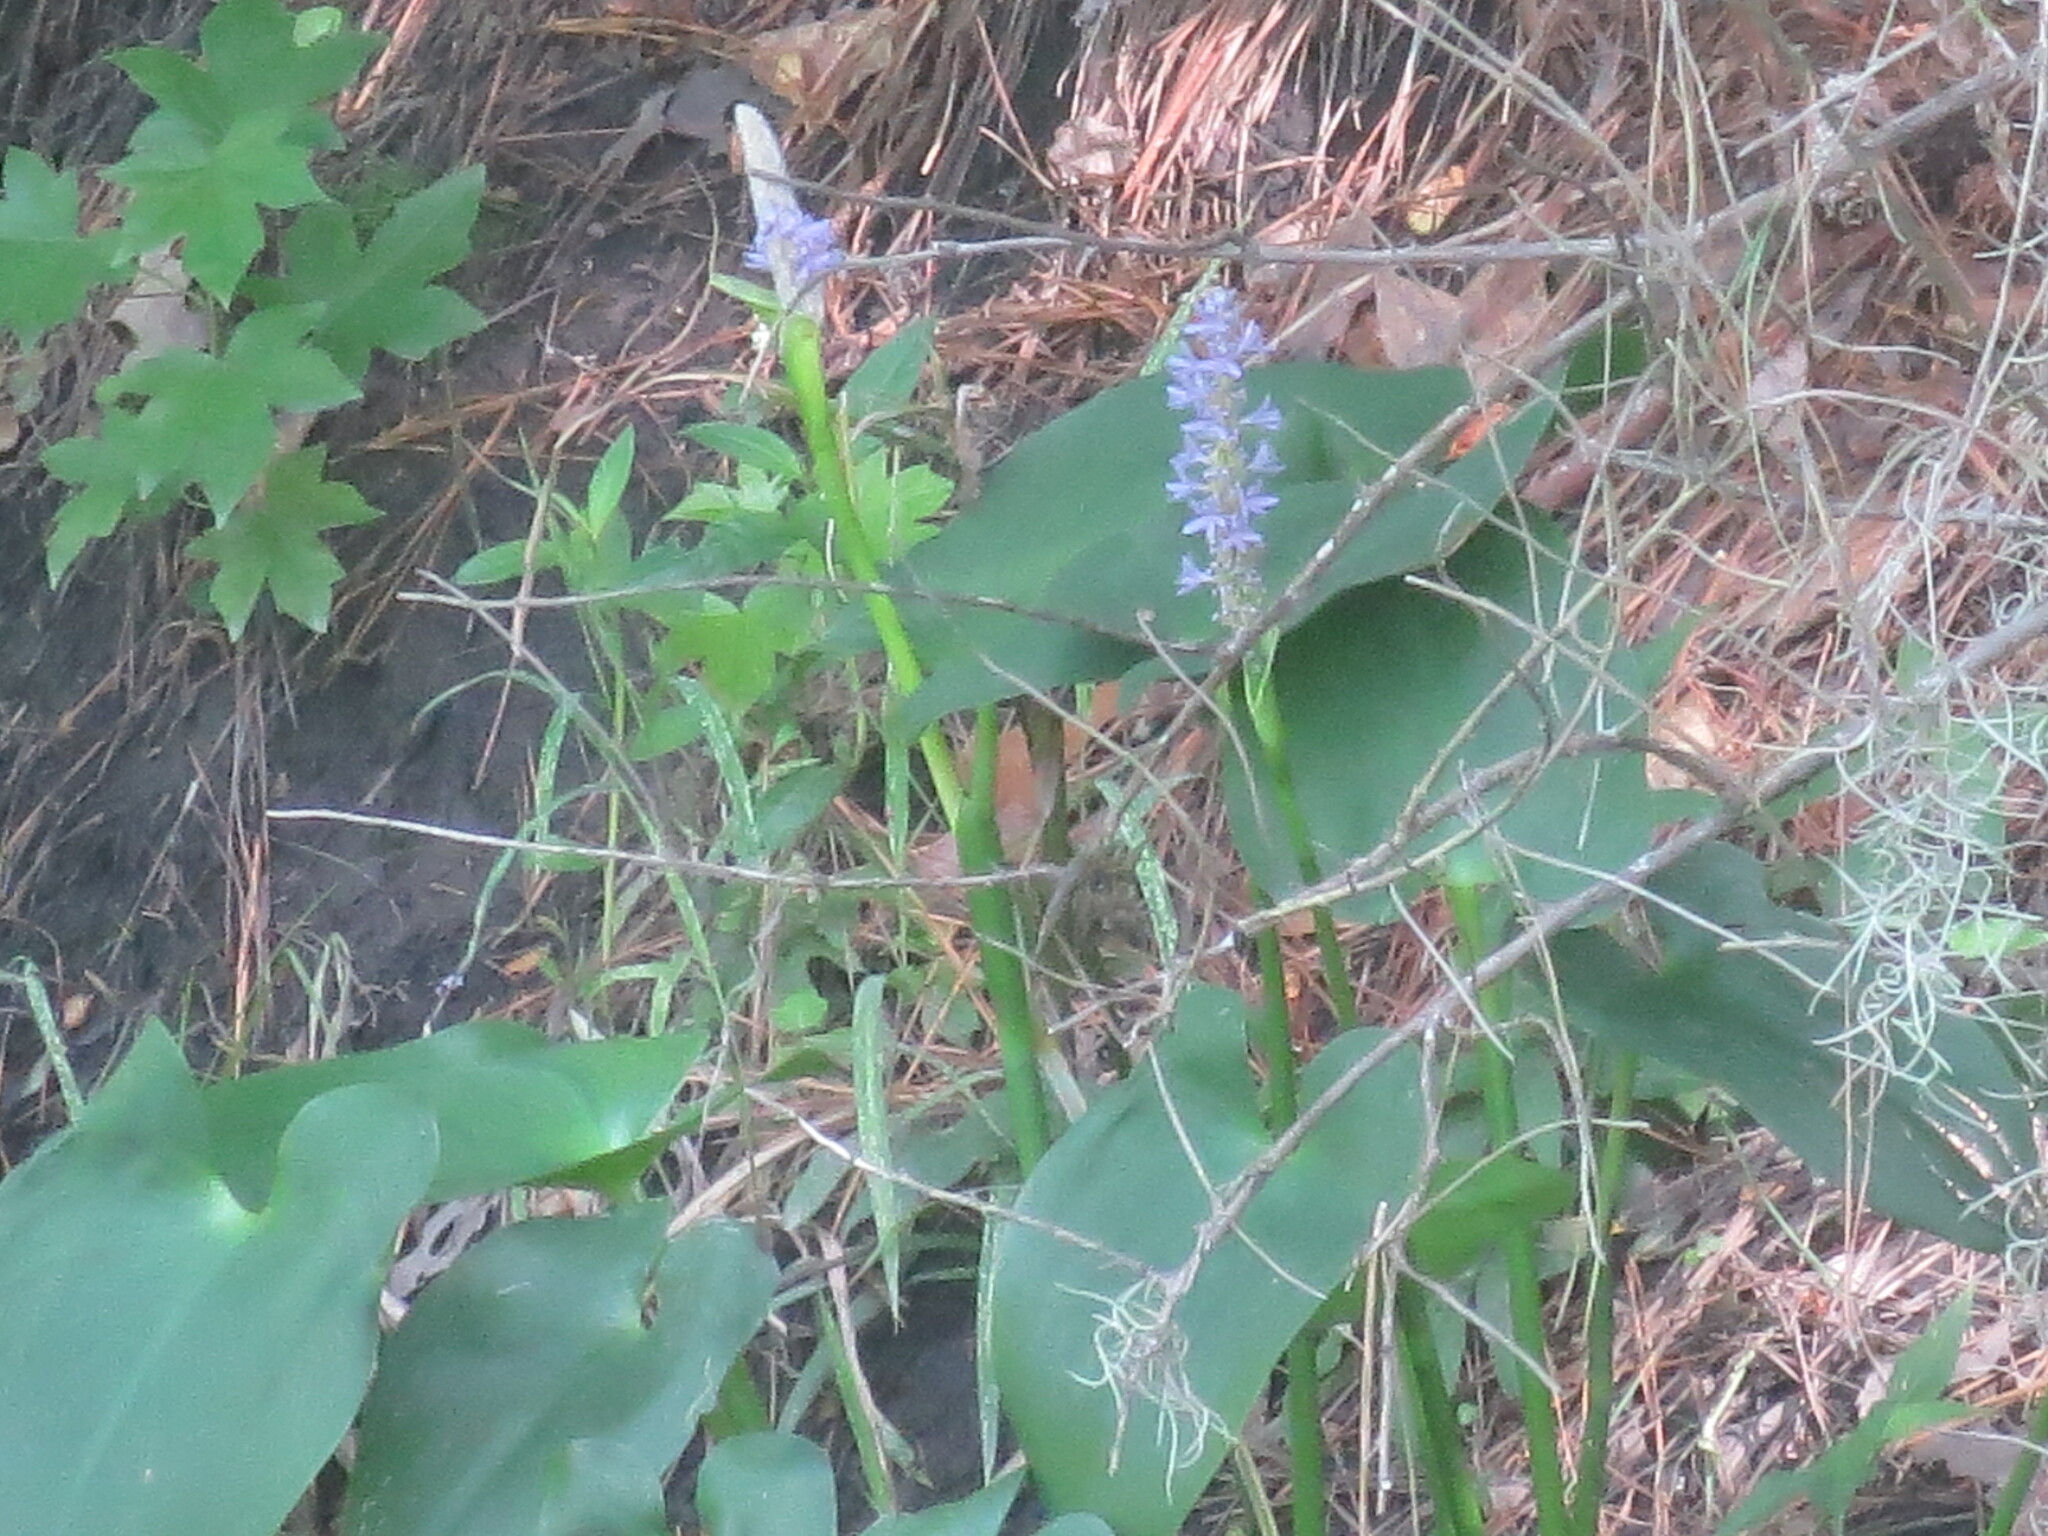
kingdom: Plantae
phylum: Tracheophyta
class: Liliopsida
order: Commelinales
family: Pontederiaceae
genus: Pontederia
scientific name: Pontederia cordata
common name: Pickerelweed
